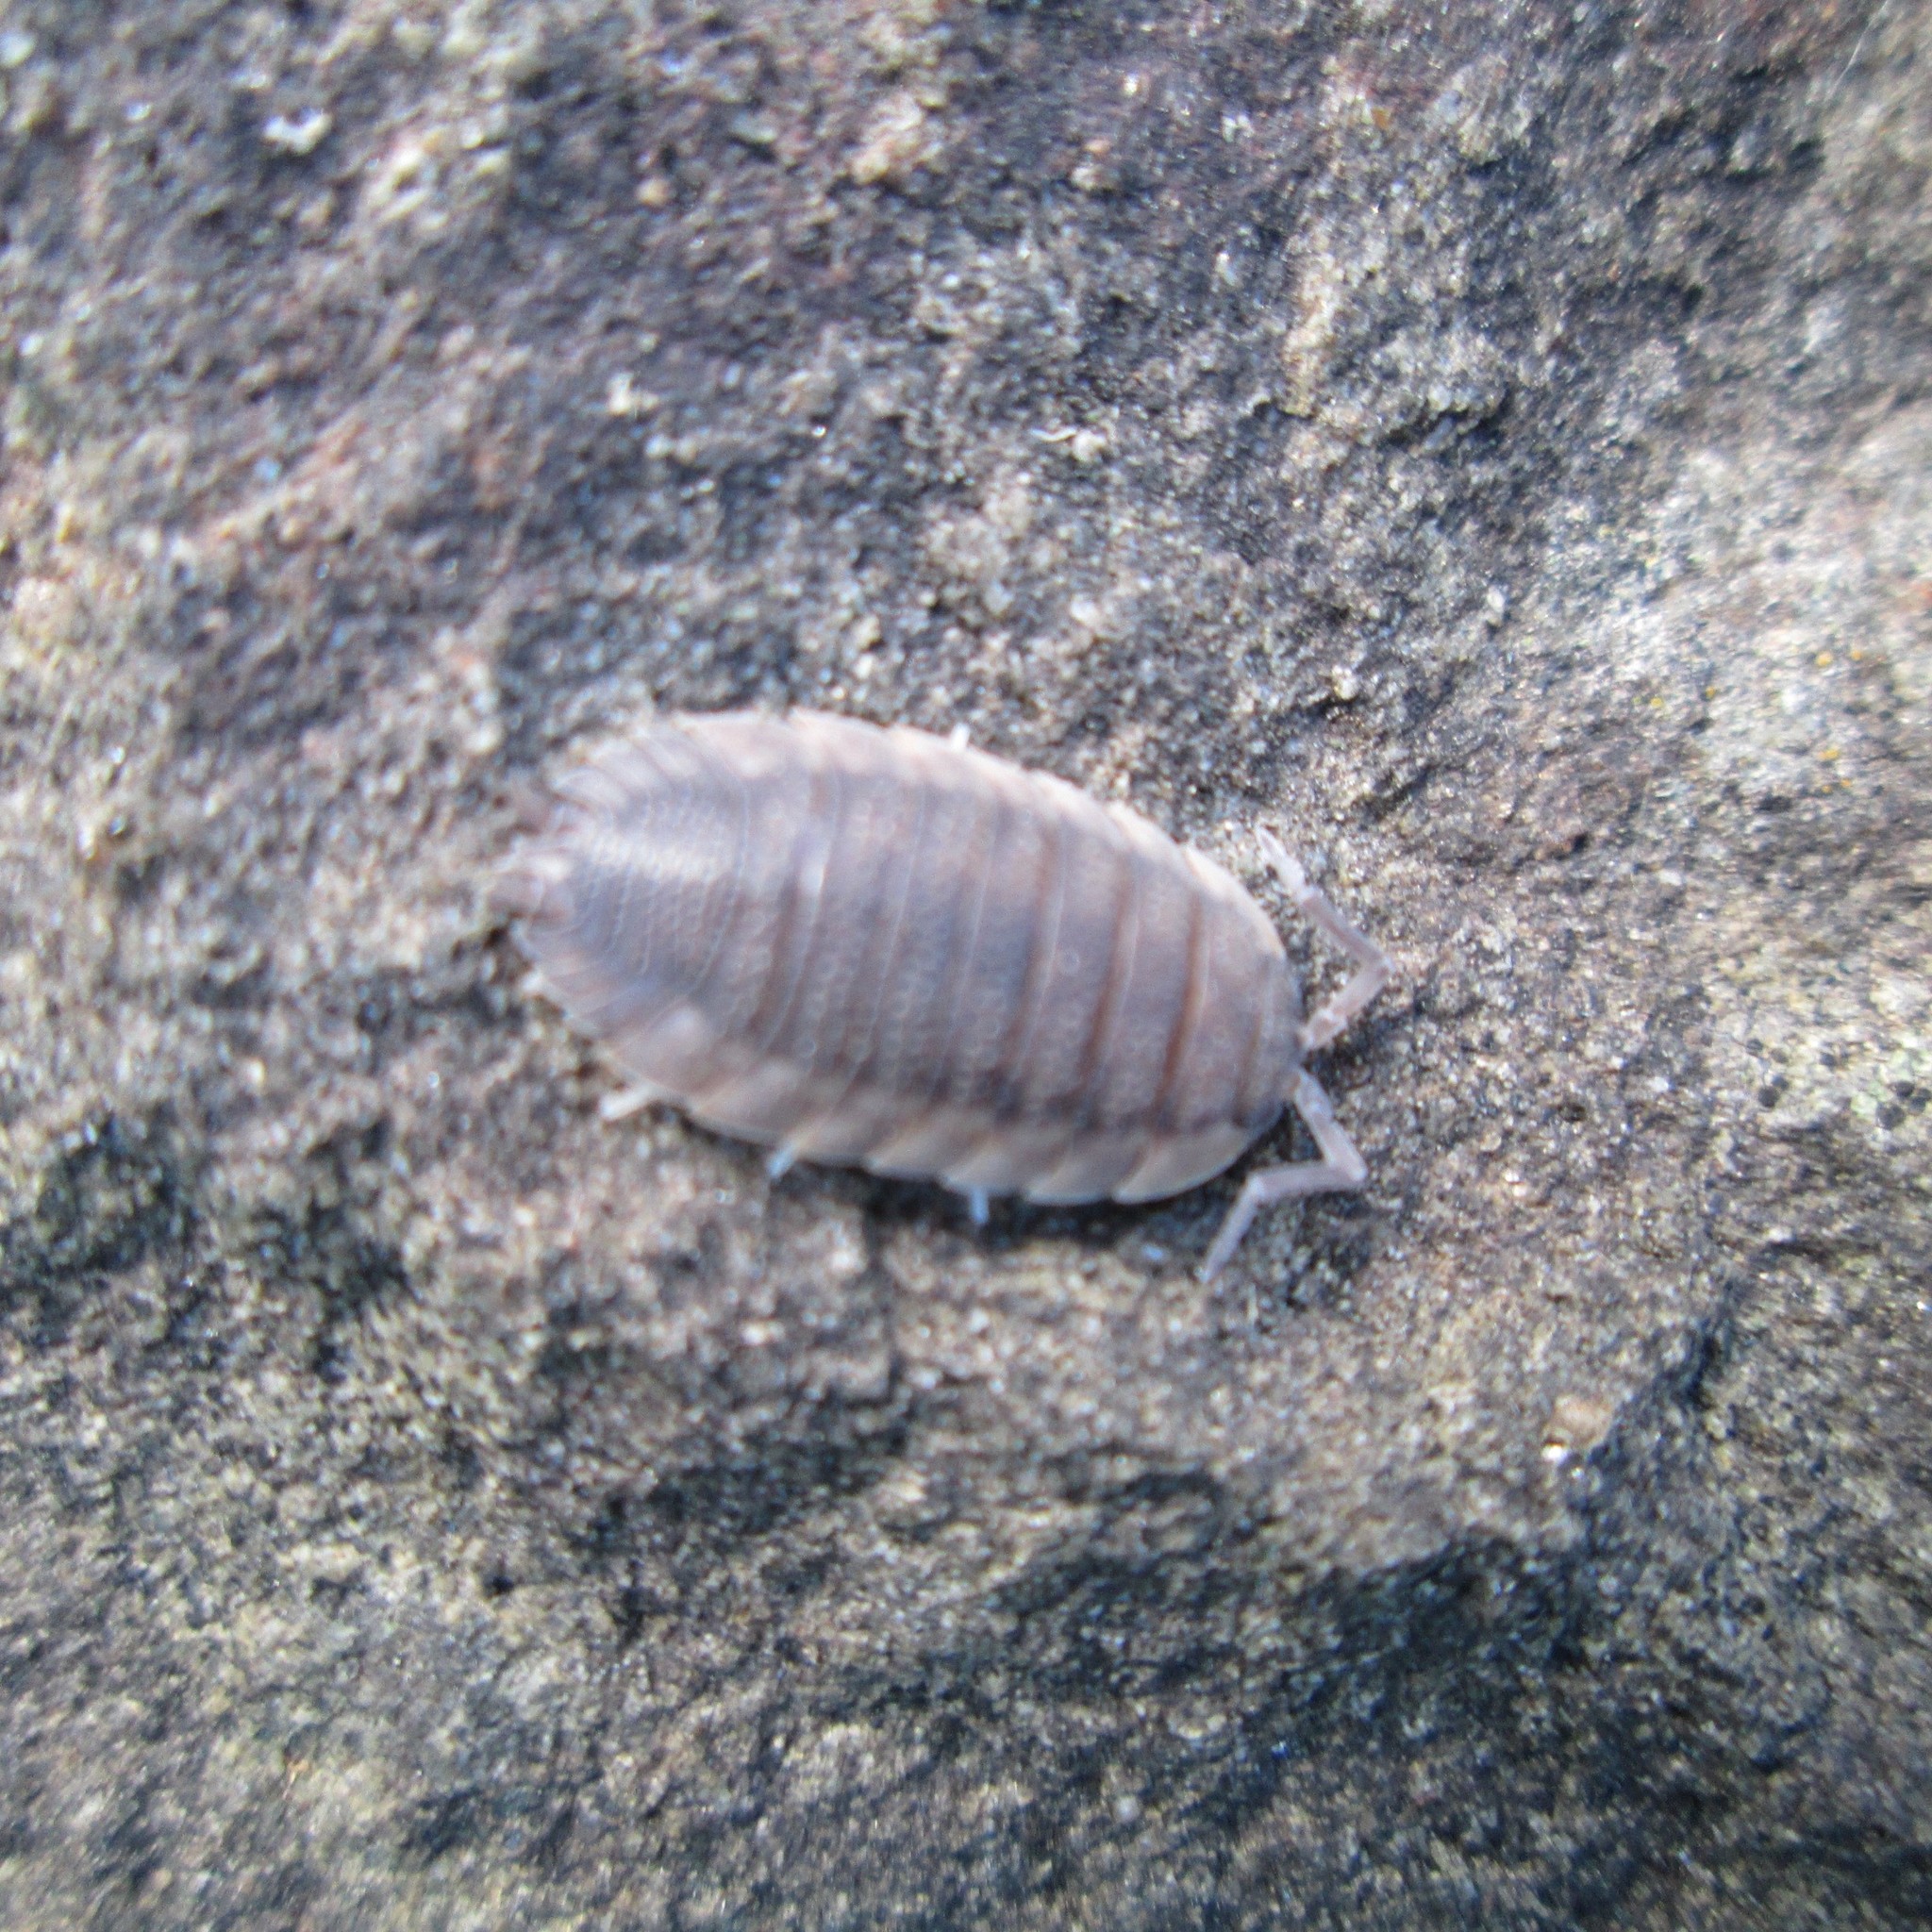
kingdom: Animalia
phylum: Arthropoda
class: Malacostraca
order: Isopoda
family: Porcellionidae
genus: Porcellio
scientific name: Porcellio scaber
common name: Common rough woodlouse
